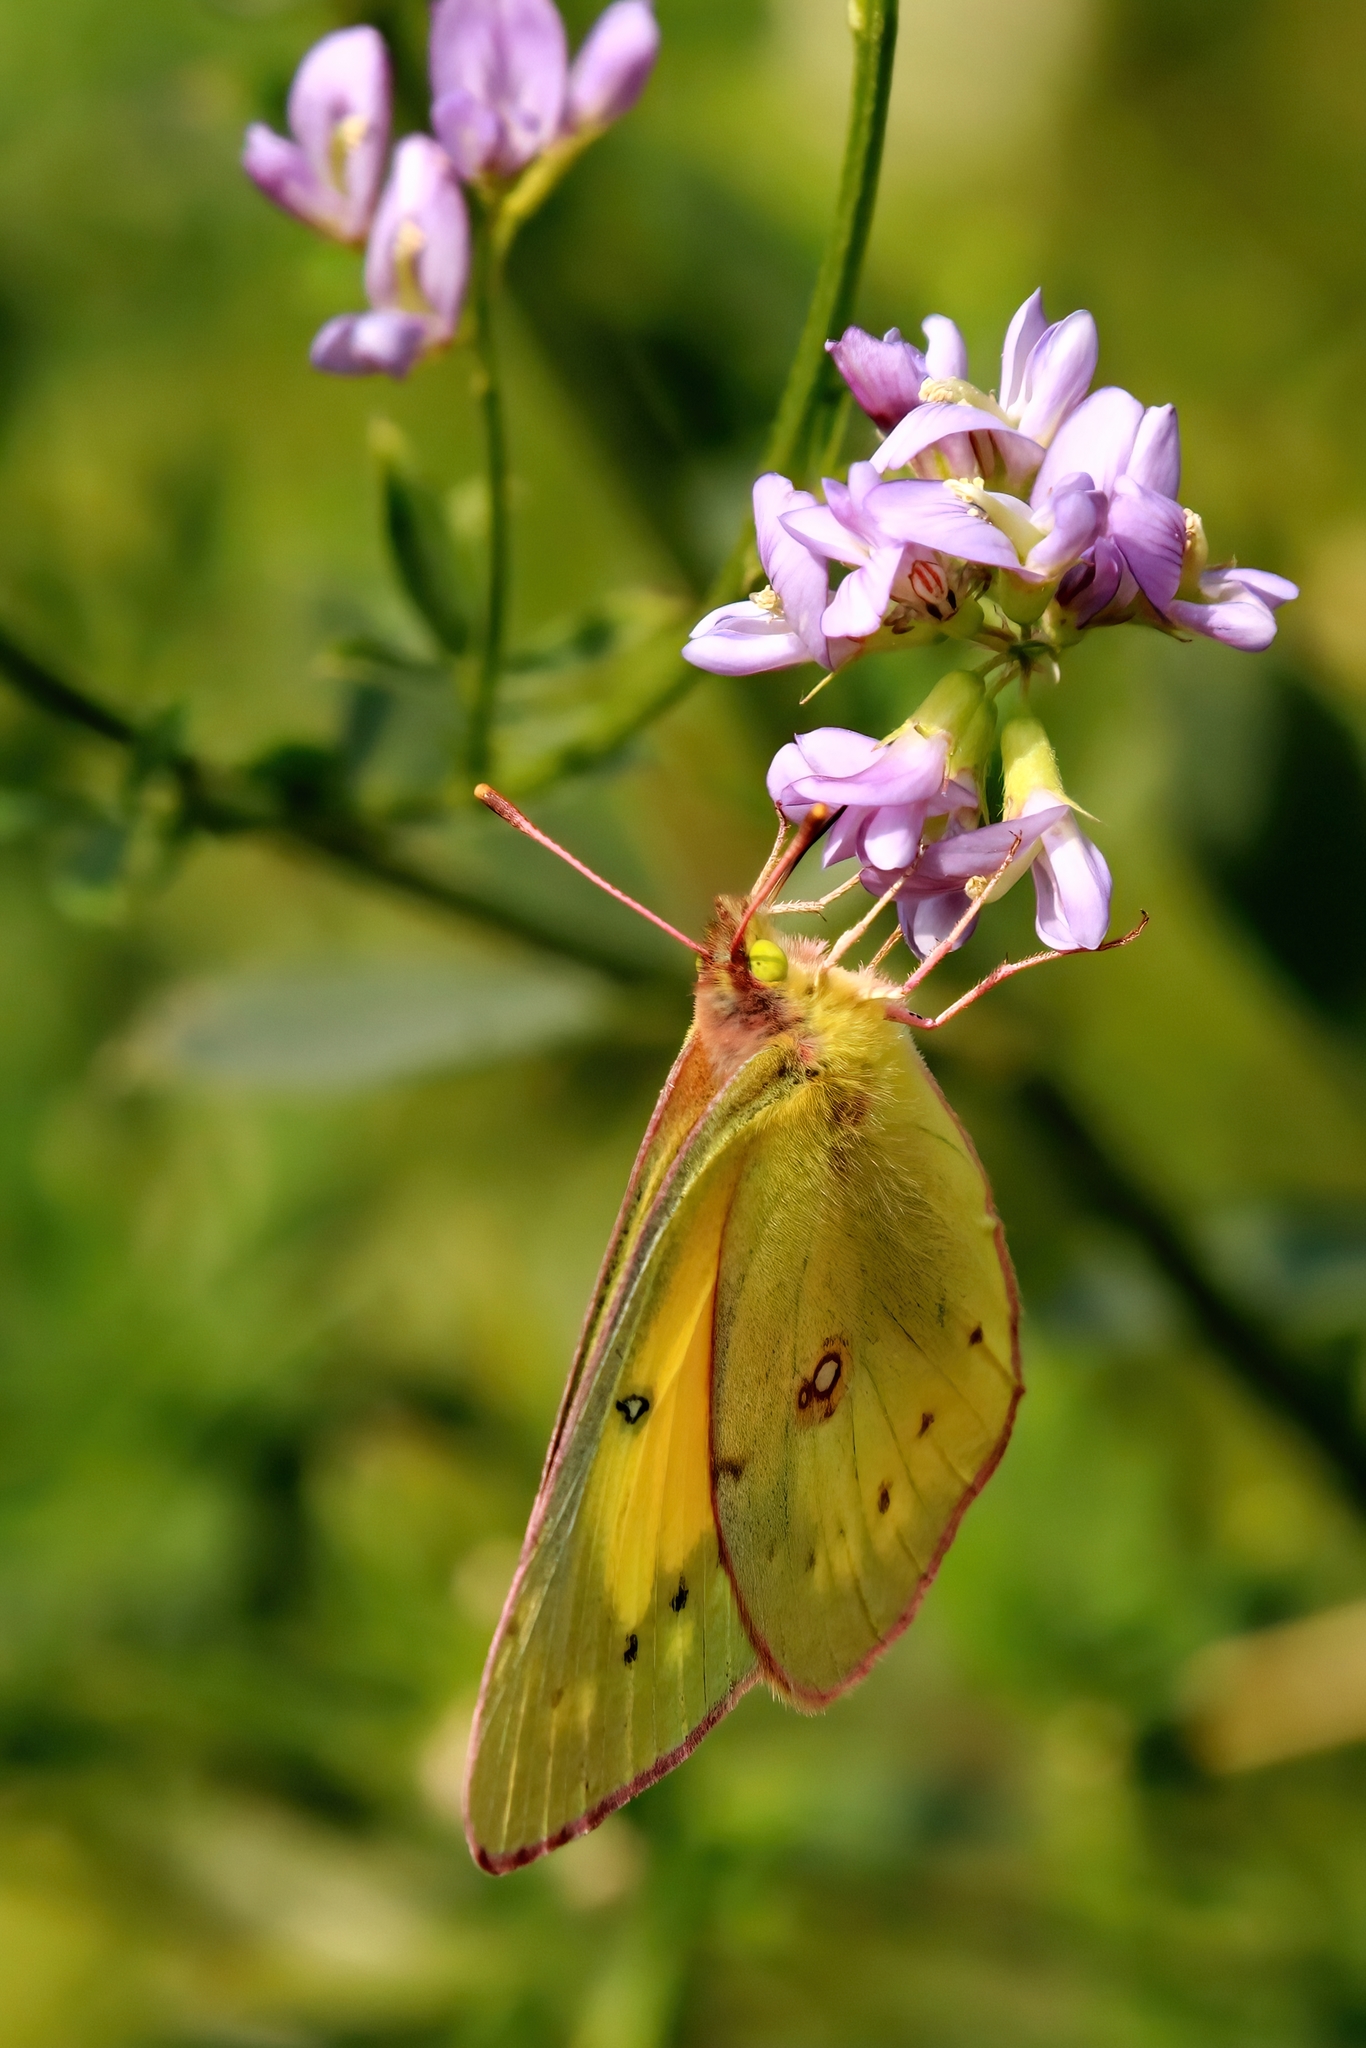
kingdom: Animalia
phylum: Arthropoda
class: Insecta
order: Lepidoptera
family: Pieridae
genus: Colias
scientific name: Colias eurytheme
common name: Alfalfa butterfly
